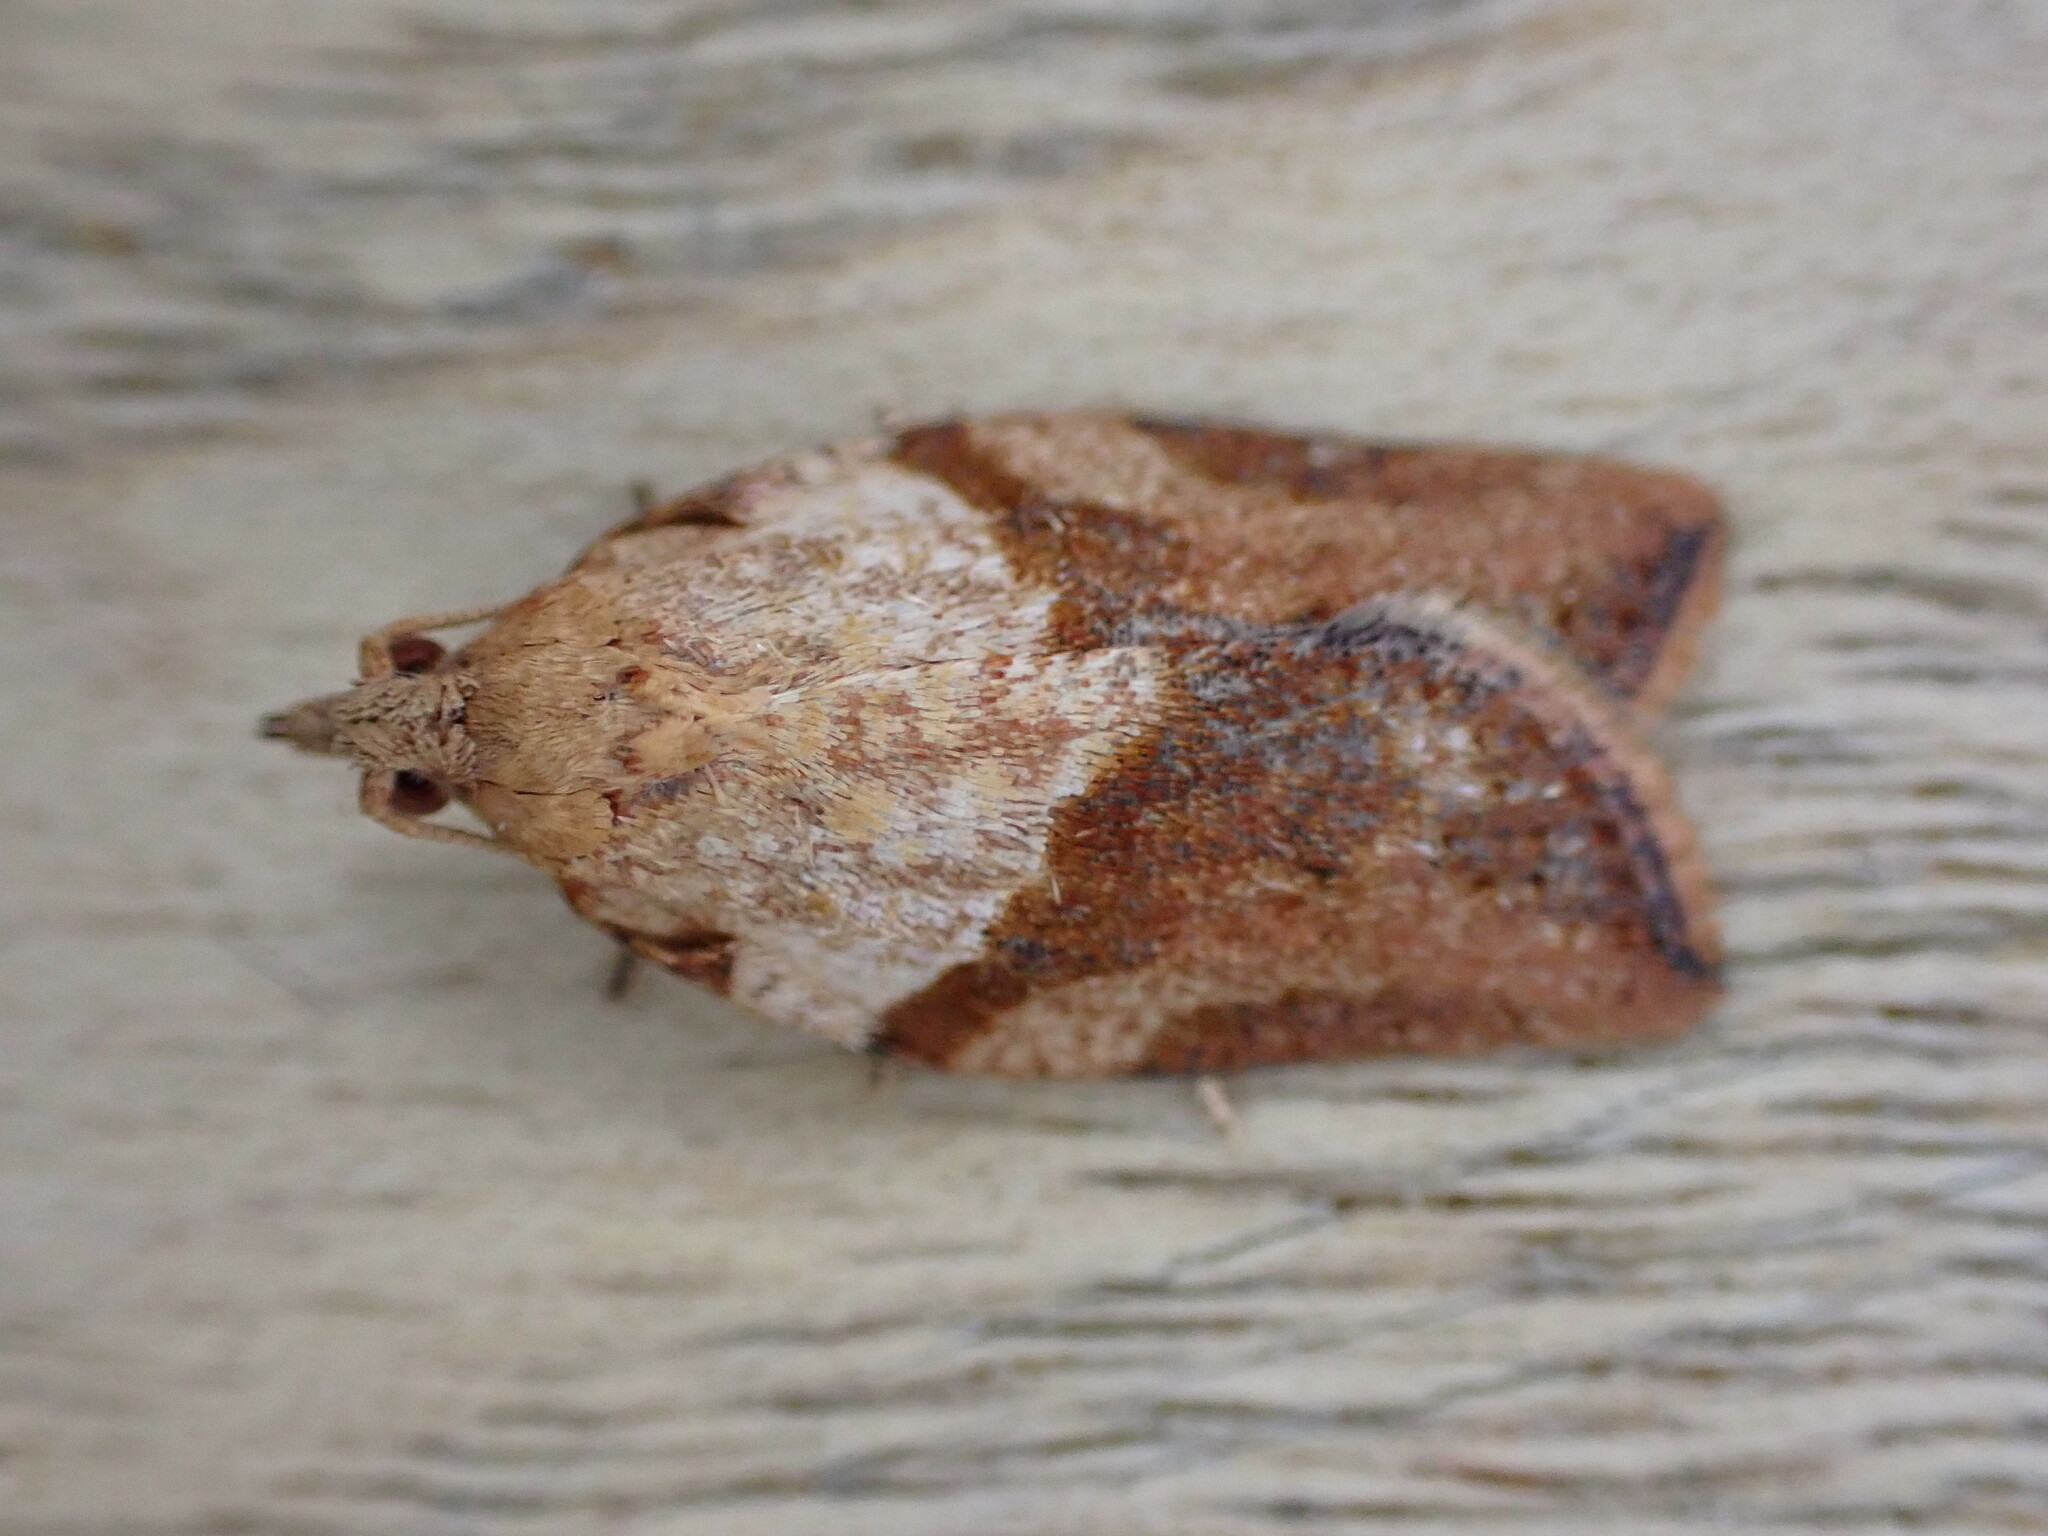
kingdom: Animalia
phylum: Arthropoda
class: Insecta
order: Lepidoptera
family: Tortricidae
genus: Epiphyas
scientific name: Epiphyas postvittana
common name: Light brown apple moth
